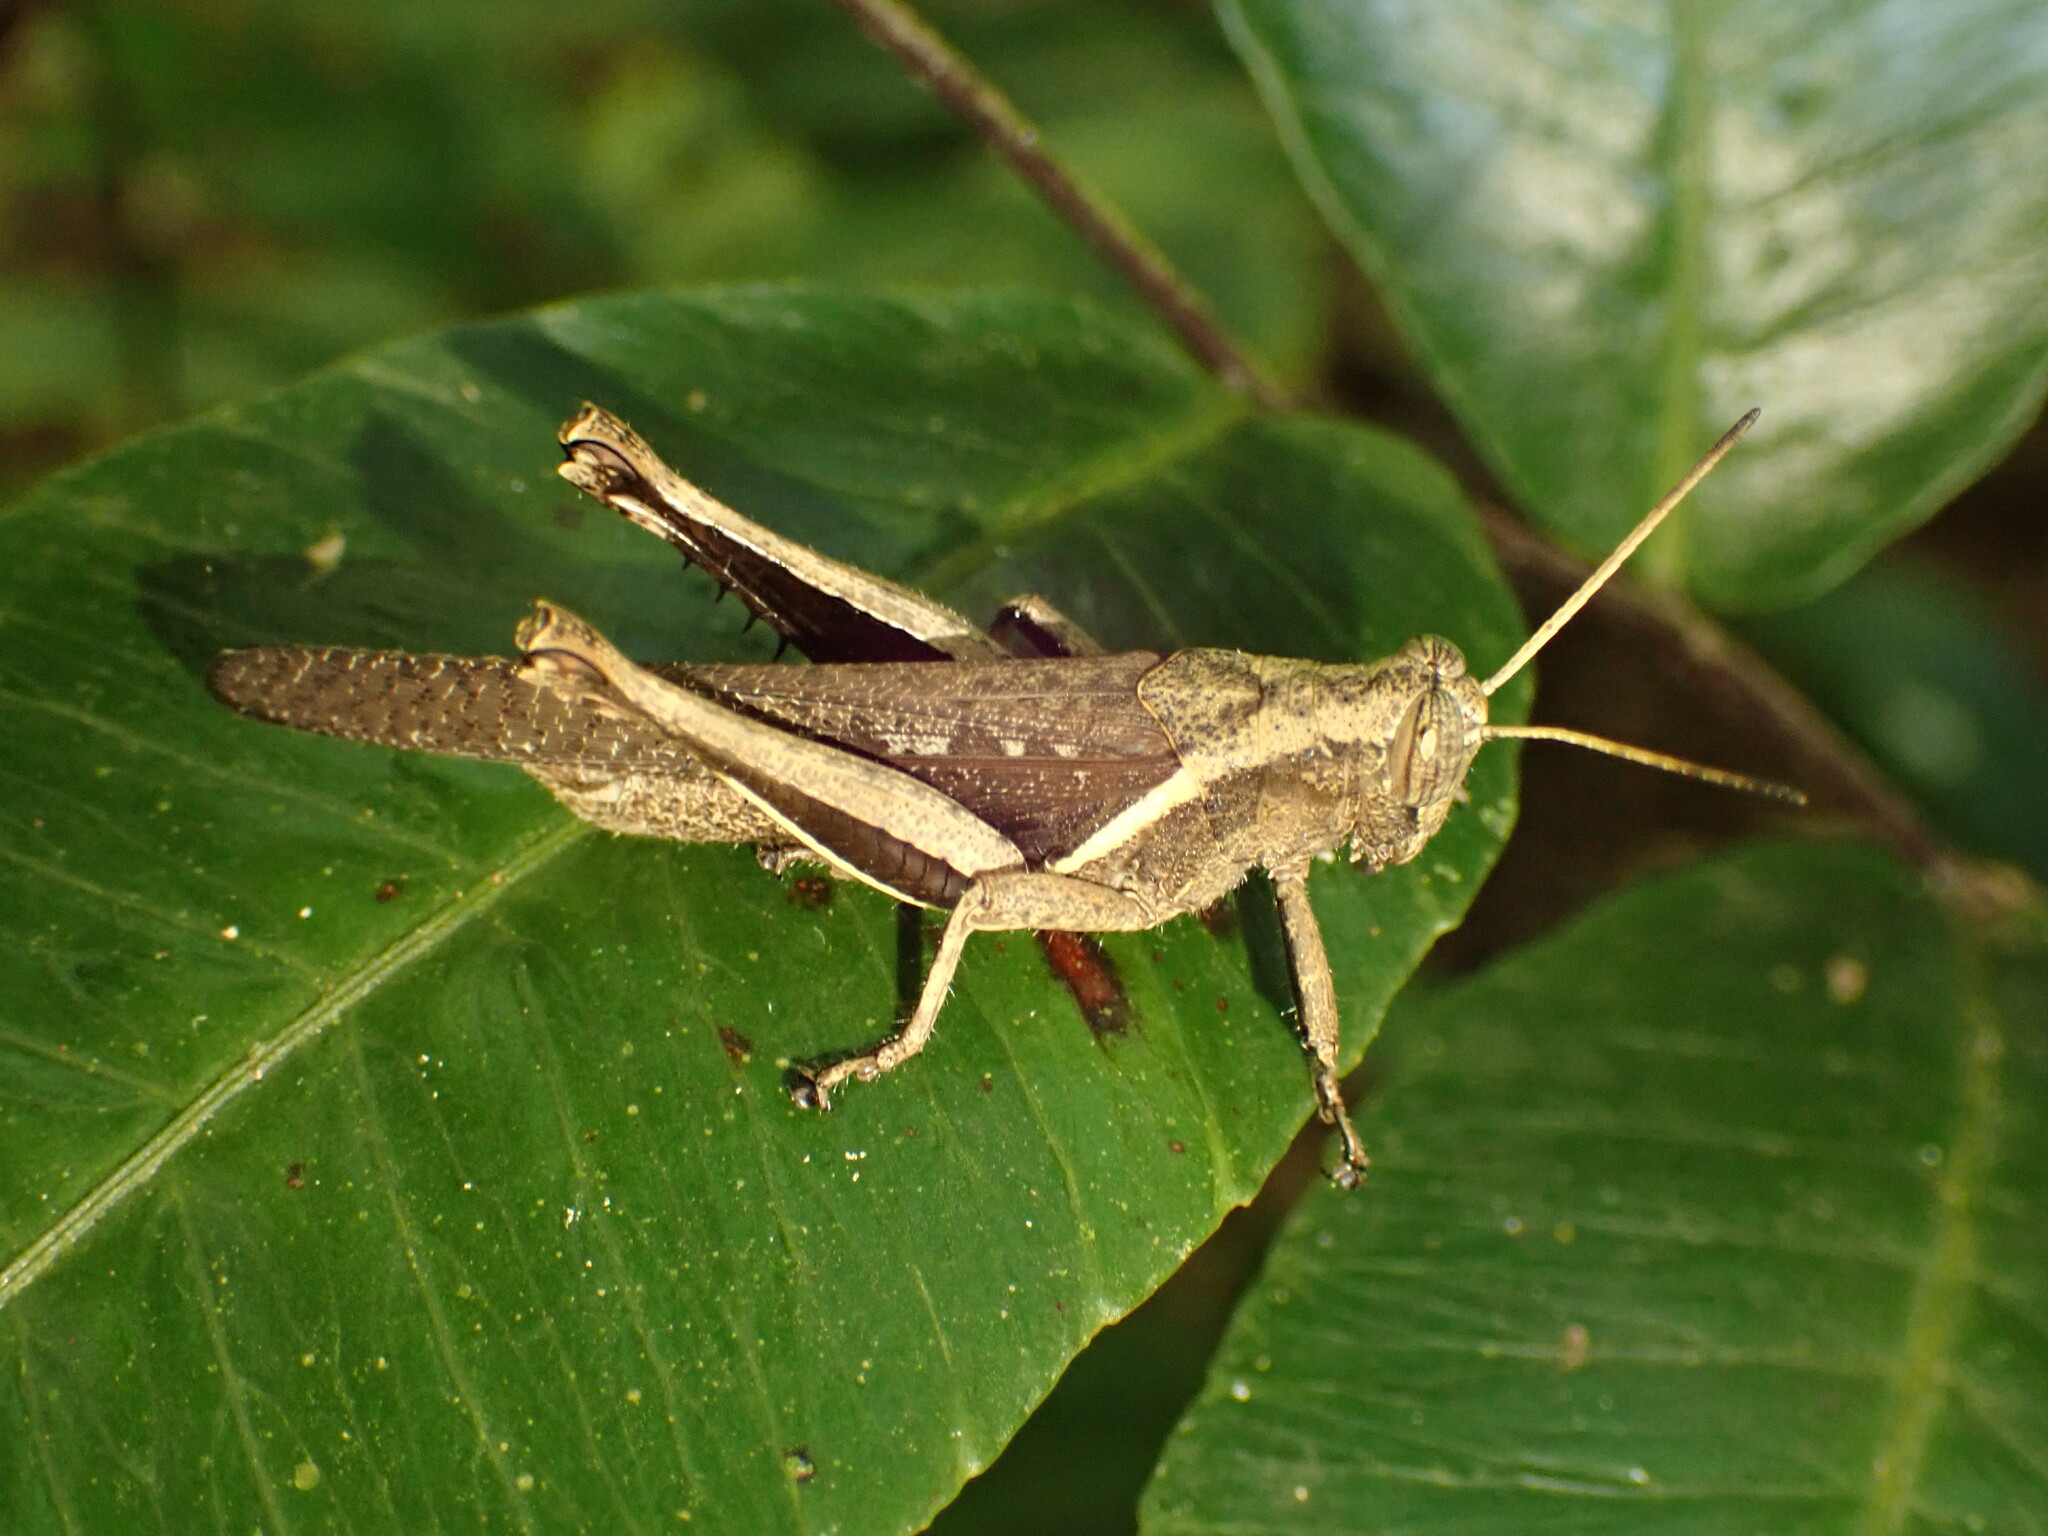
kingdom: Animalia
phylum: Arthropoda
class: Insecta
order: Orthoptera
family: Acrididae
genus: Abracris
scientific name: Abracris flavolineata
